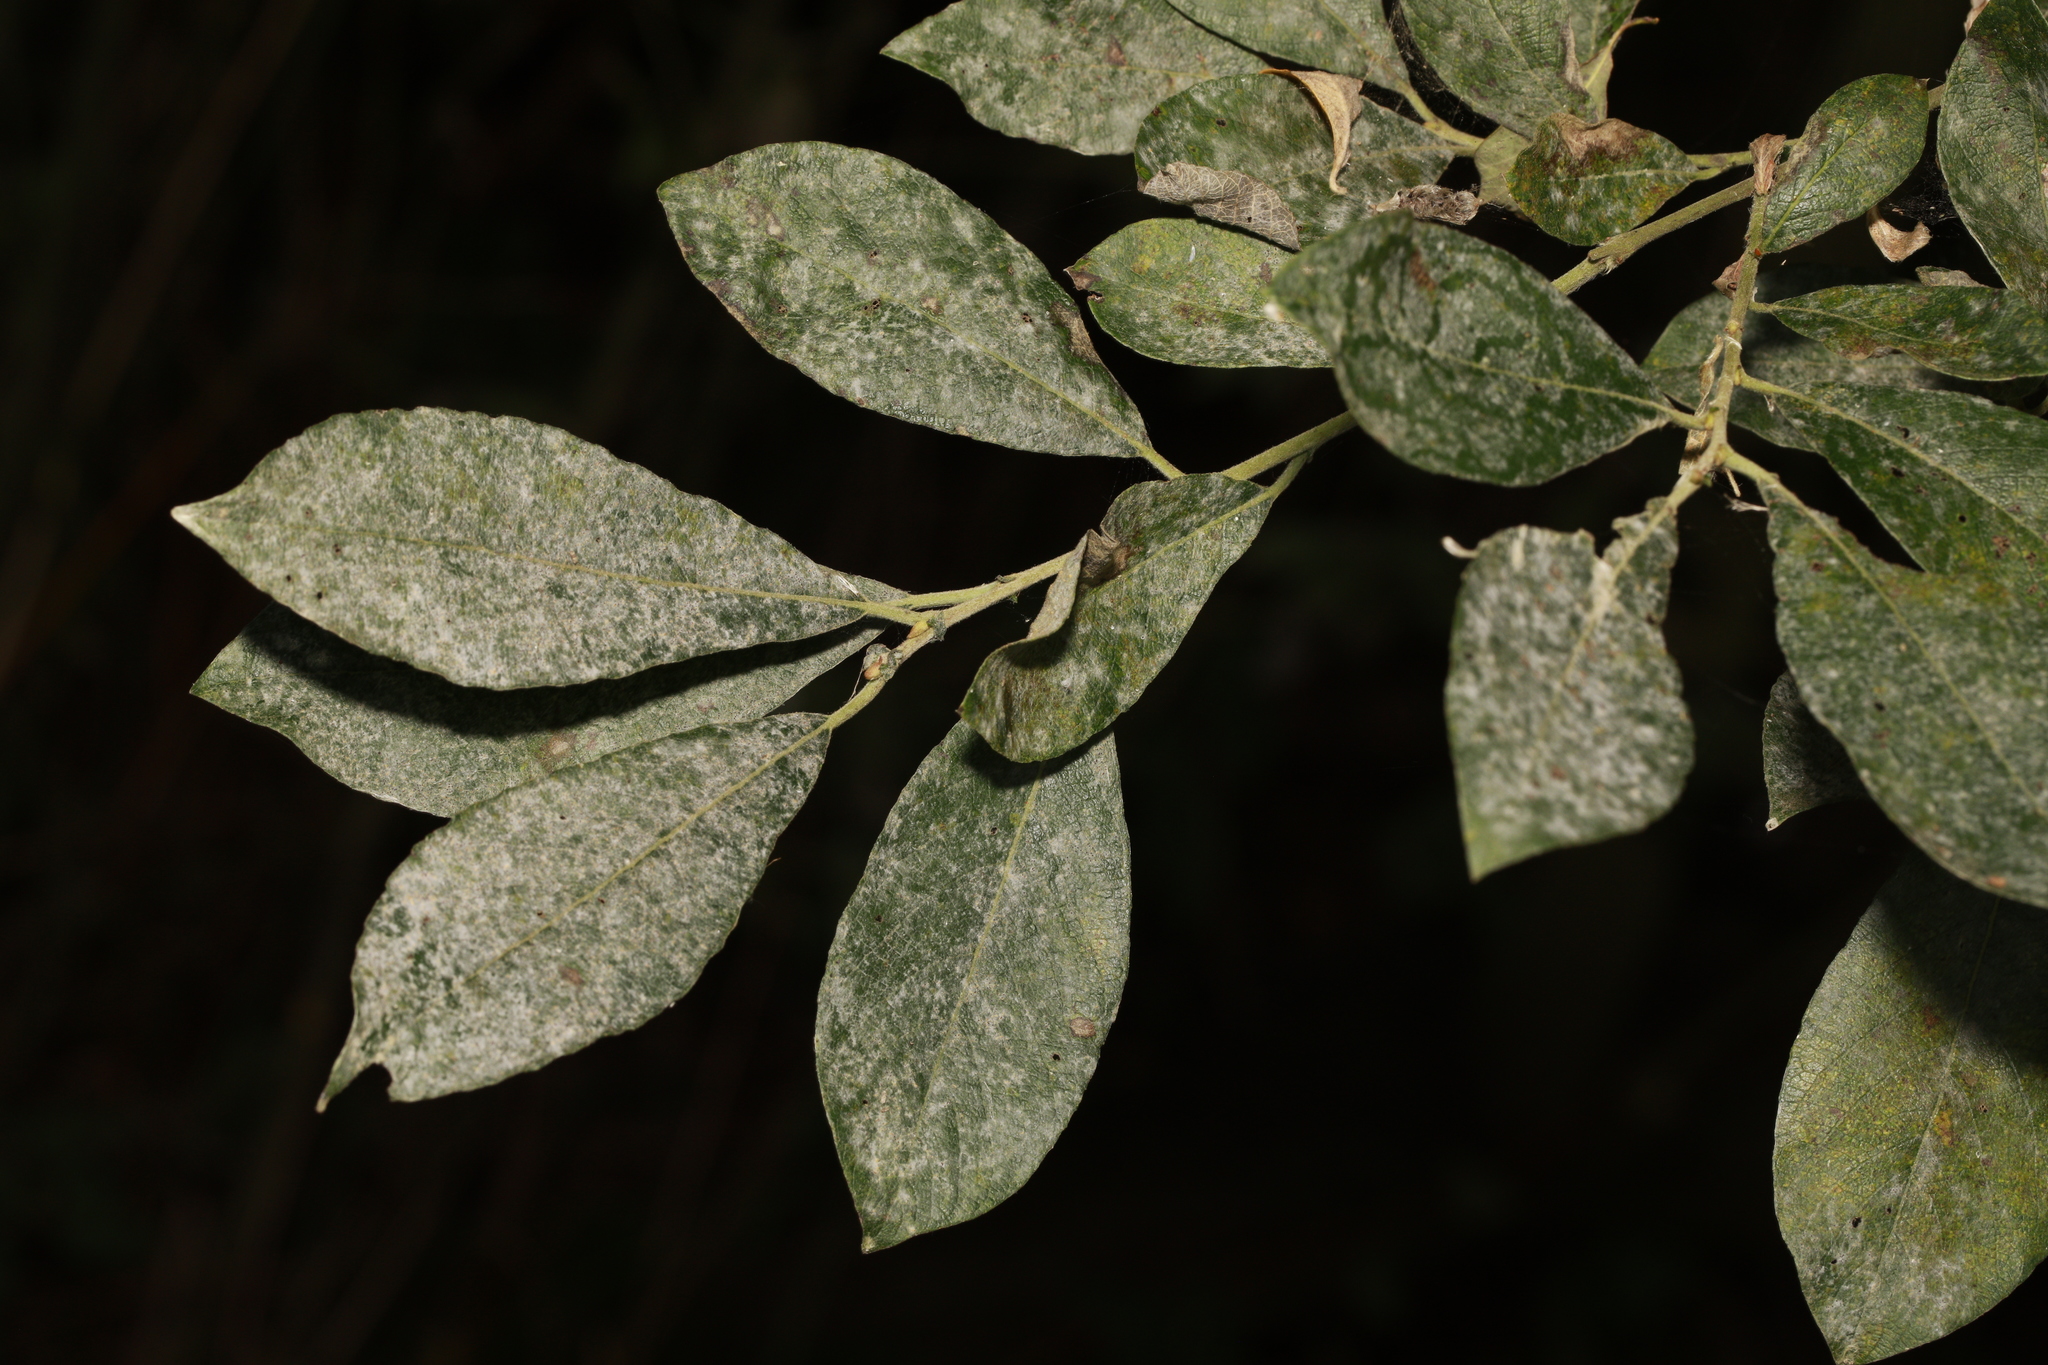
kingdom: Fungi
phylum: Ascomycota
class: Leotiomycetes
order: Helotiales
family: Erysiphaceae
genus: Erysiphe
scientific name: Erysiphe capreae
